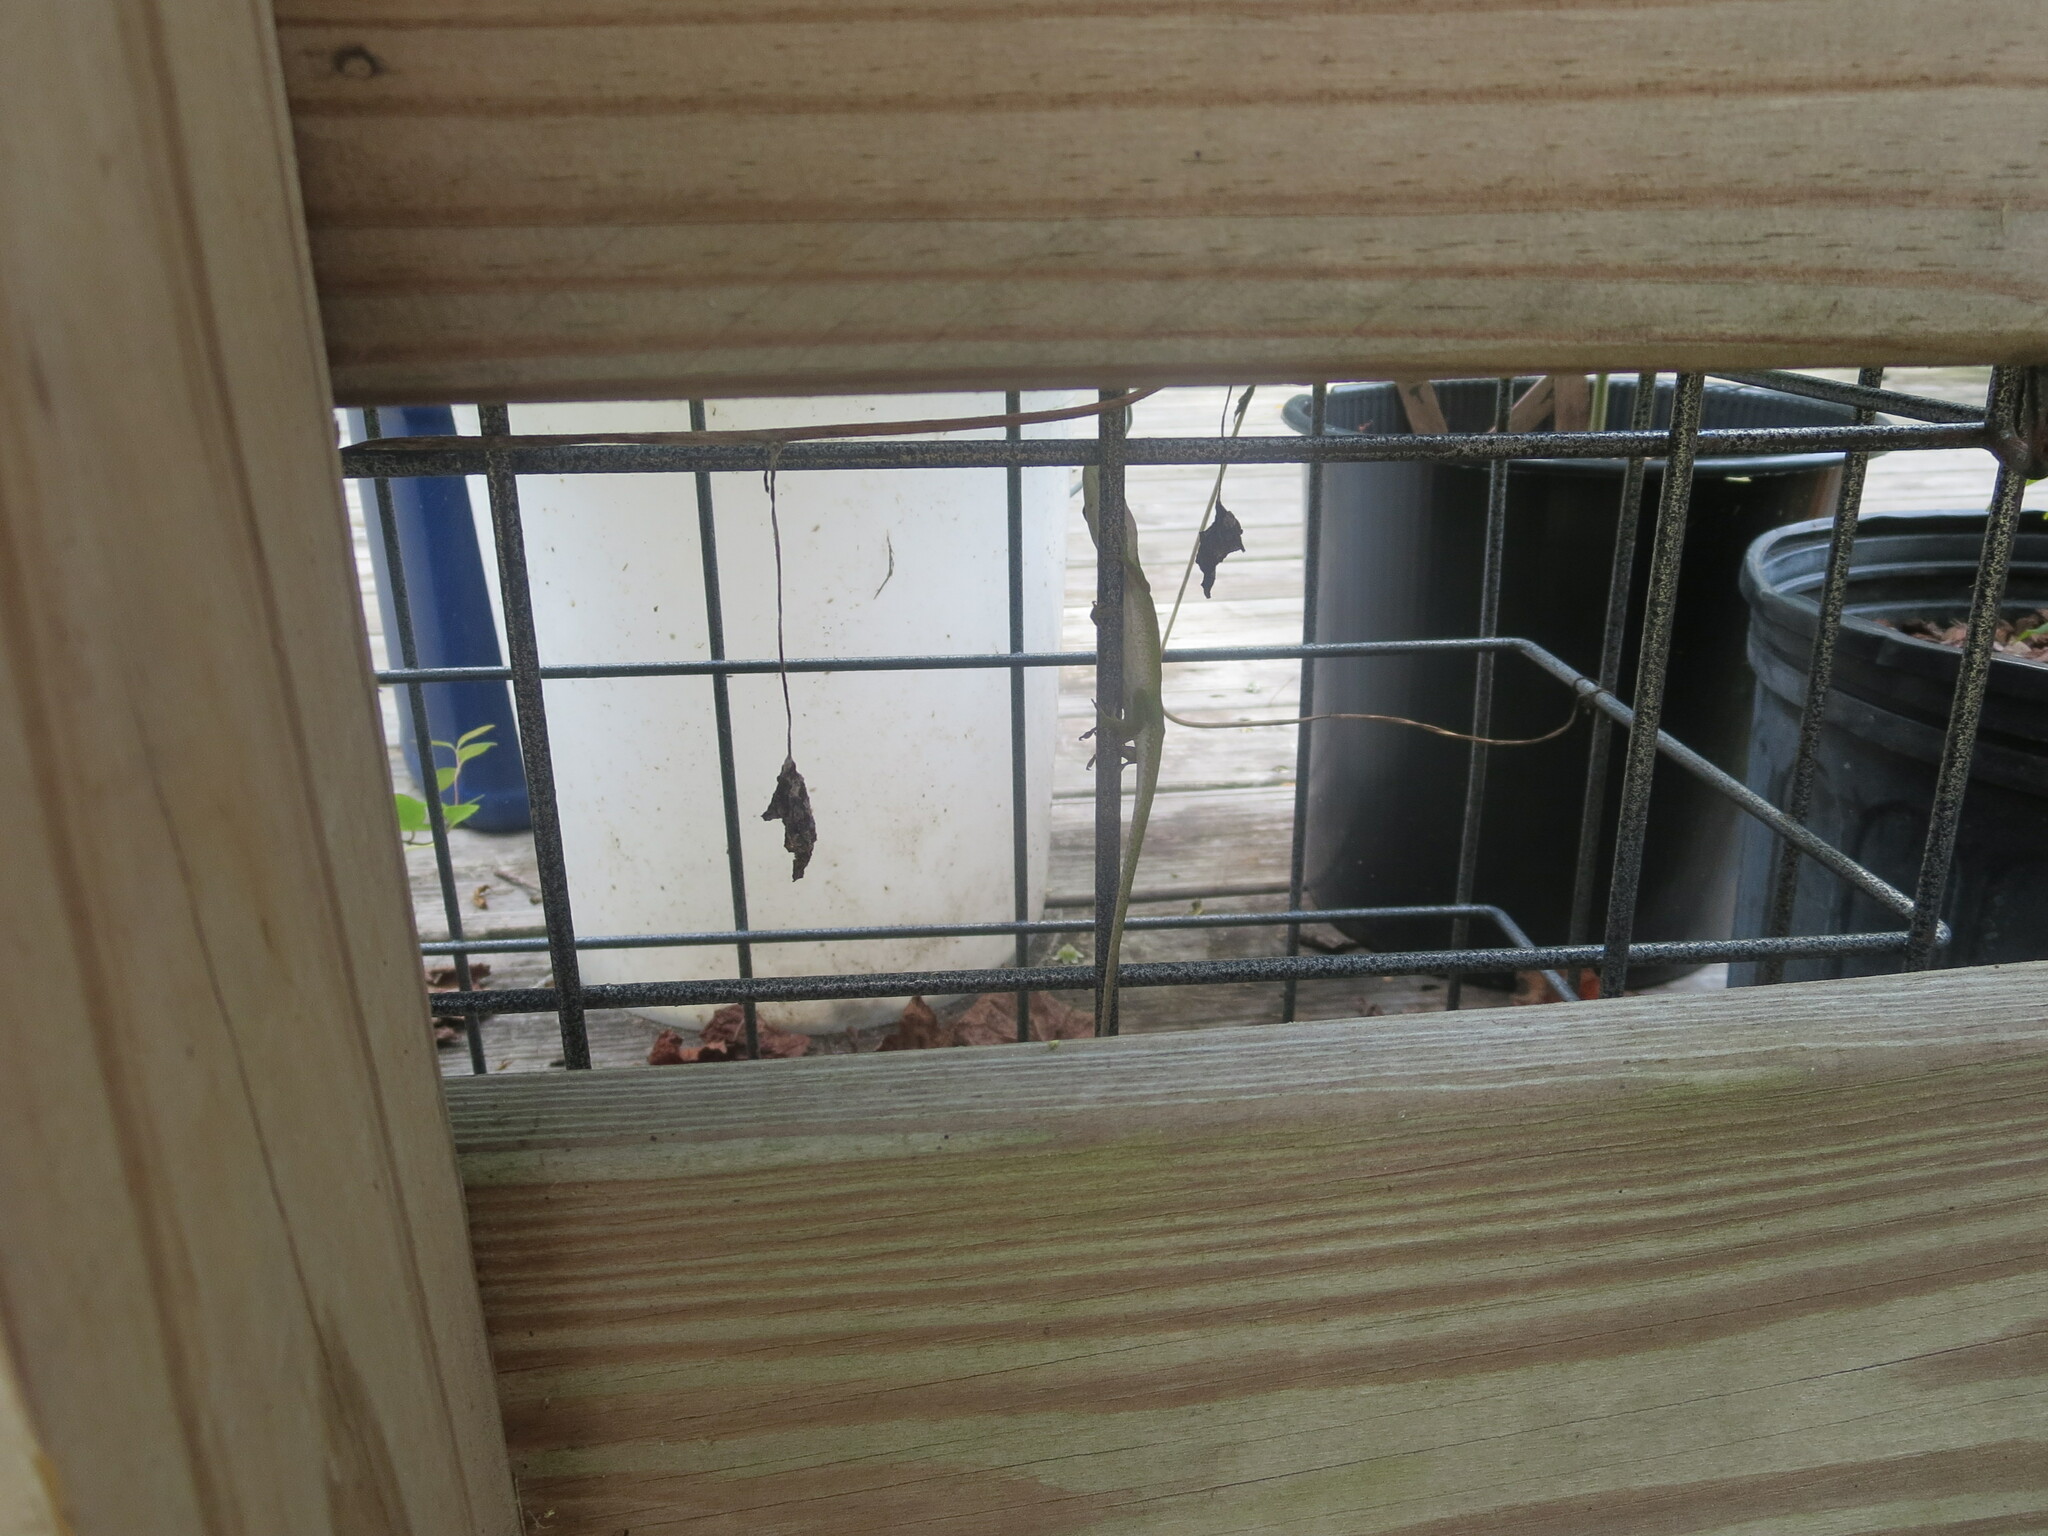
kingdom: Animalia
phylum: Chordata
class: Squamata
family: Dactyloidae
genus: Anolis
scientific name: Anolis carolinensis
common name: Green anole
